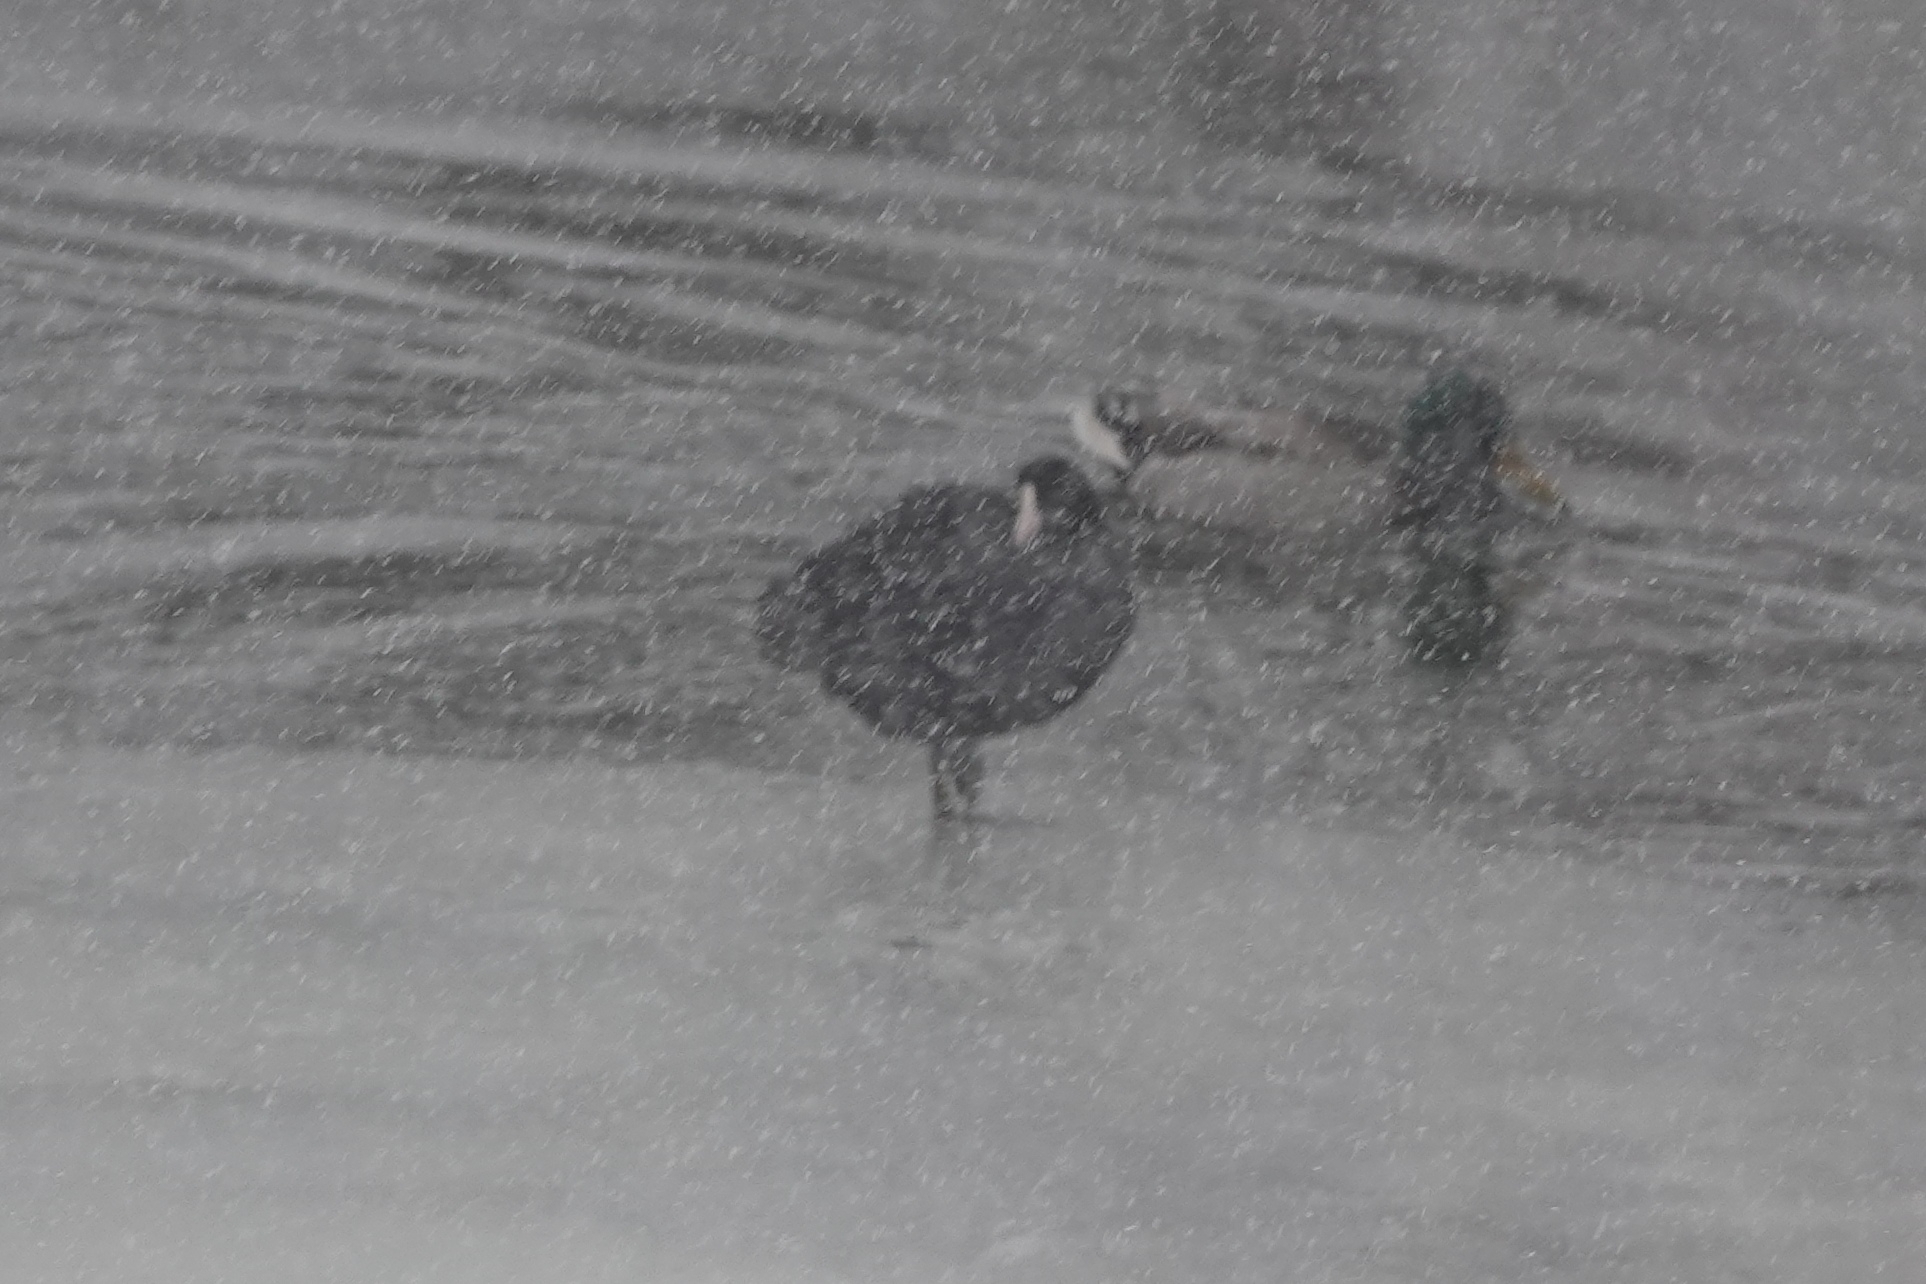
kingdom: Animalia
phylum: Chordata
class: Aves
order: Gruiformes
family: Rallidae
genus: Fulica
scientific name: Fulica atra
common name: Eurasian coot
